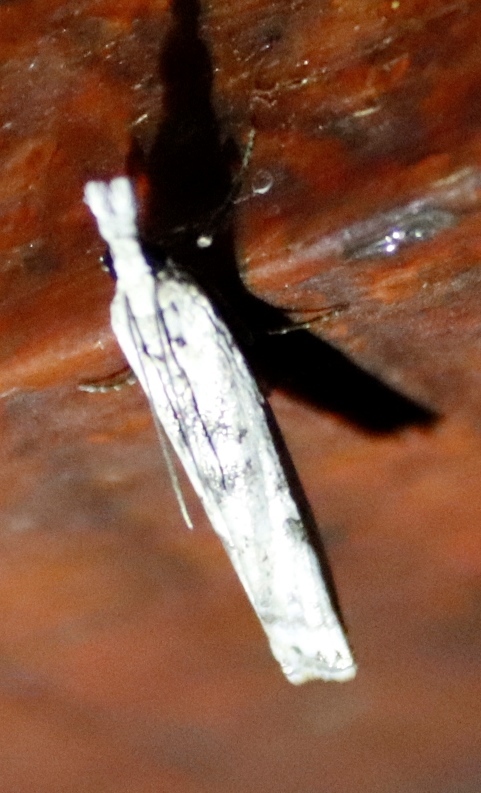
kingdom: Animalia
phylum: Arthropoda
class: Insecta
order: Lepidoptera
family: Crambidae
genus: Crambus
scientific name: Crambus sparsellus
